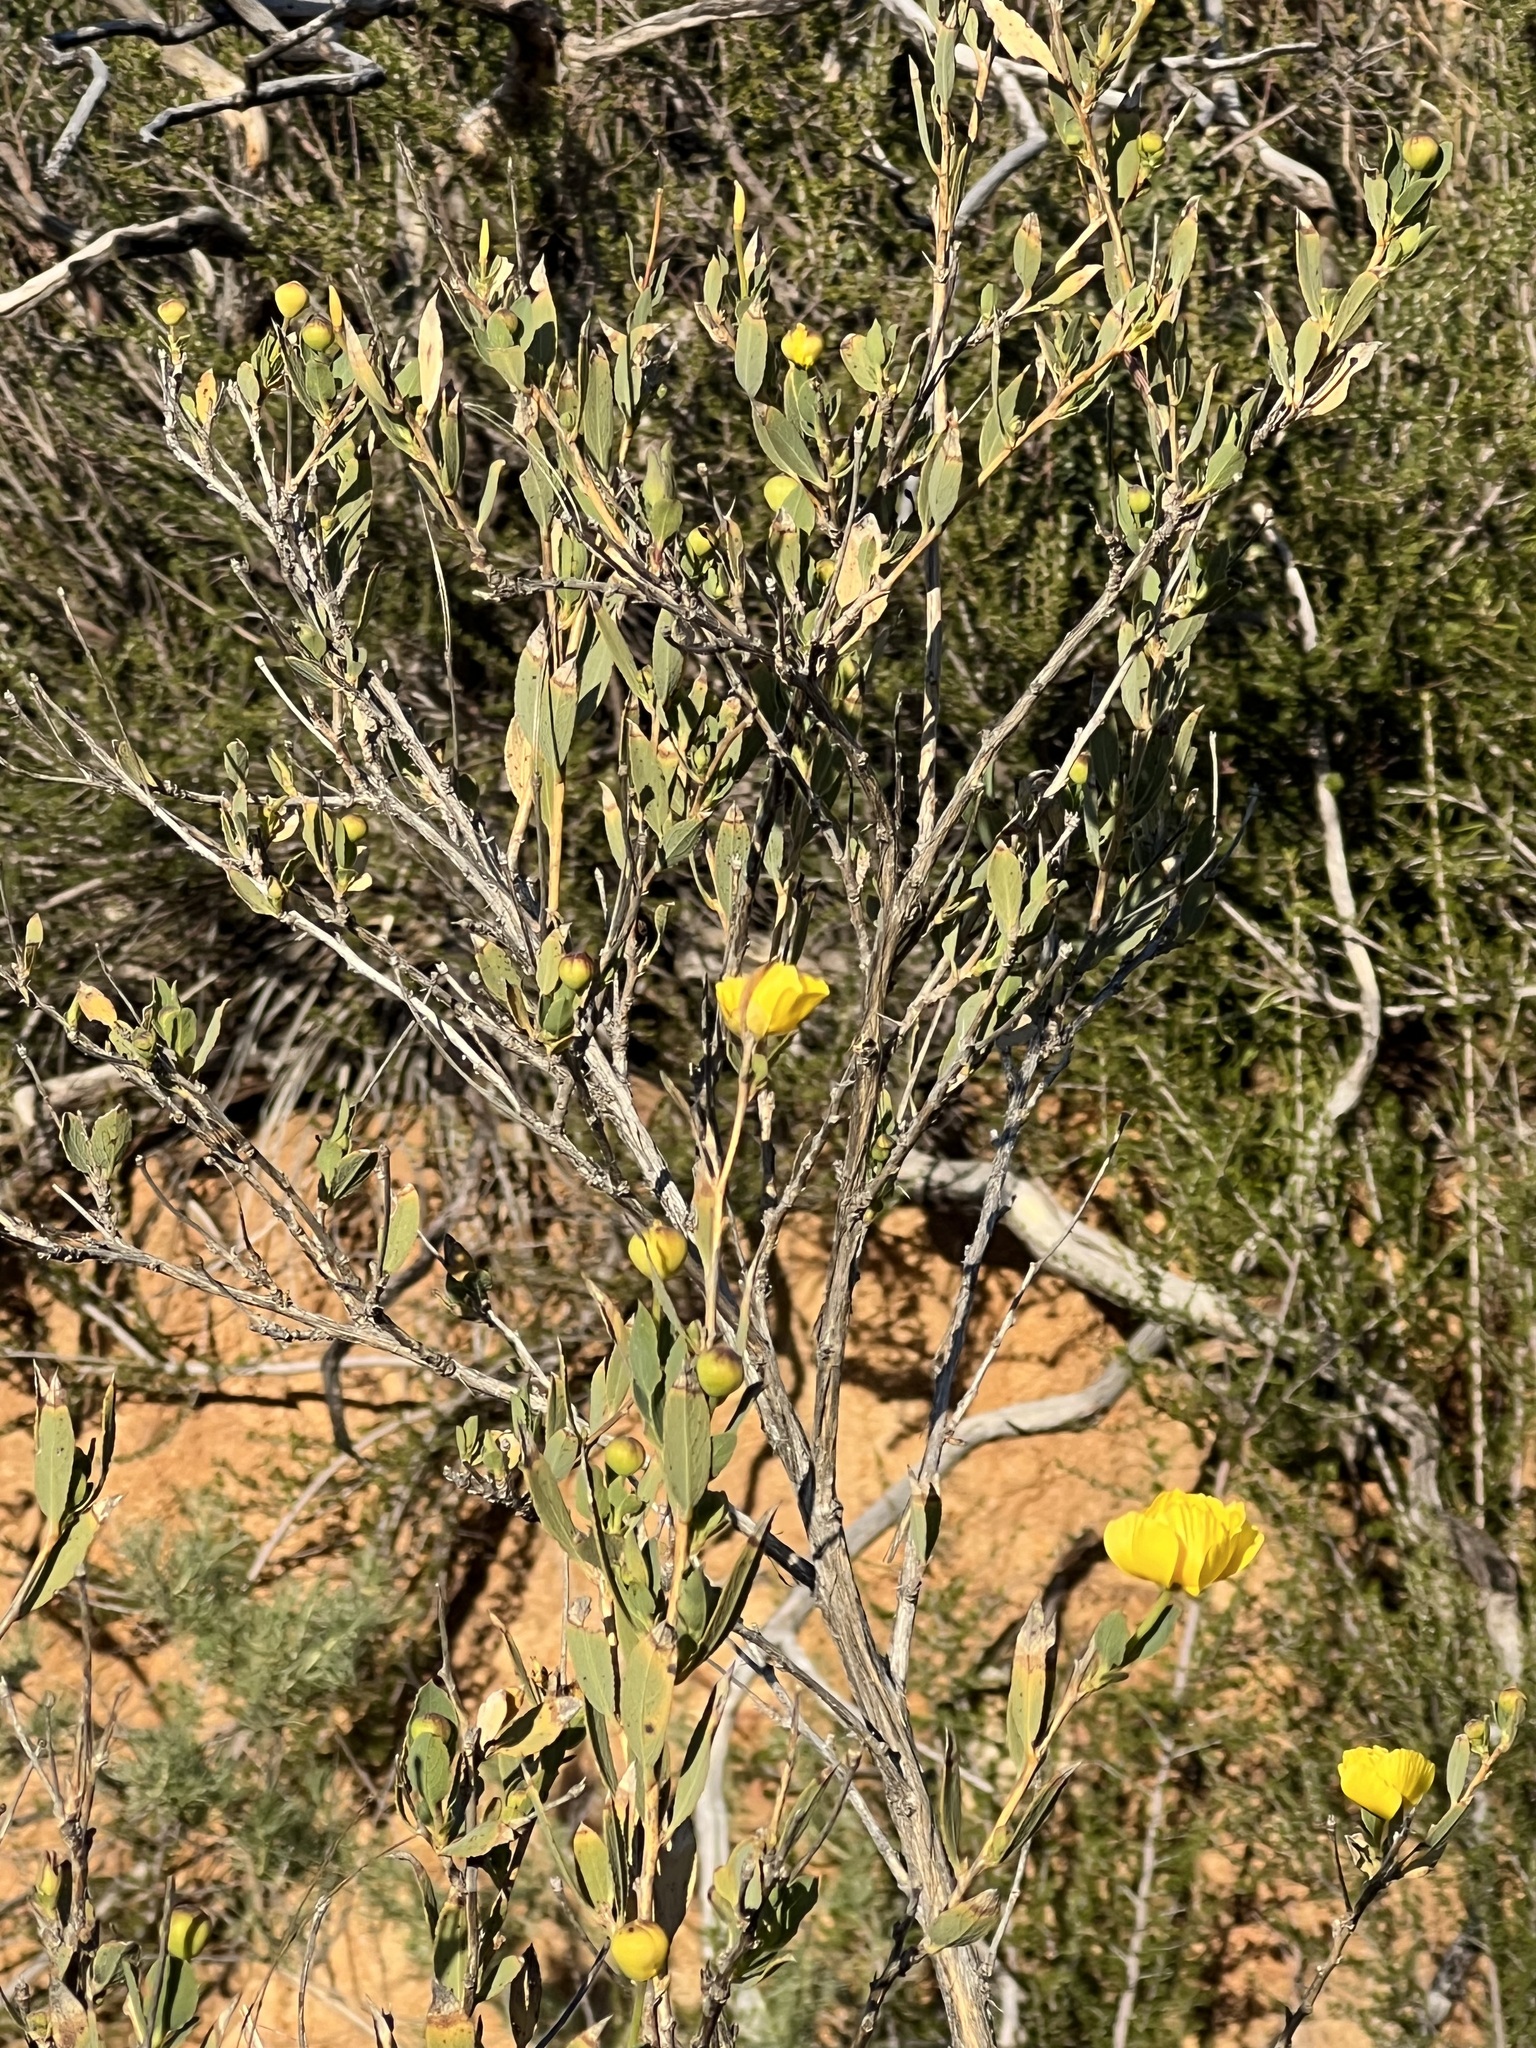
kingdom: Plantae
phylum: Tracheophyta
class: Magnoliopsida
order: Ranunculales
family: Papaveraceae
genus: Dendromecon
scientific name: Dendromecon rigida
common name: Tree poppy
